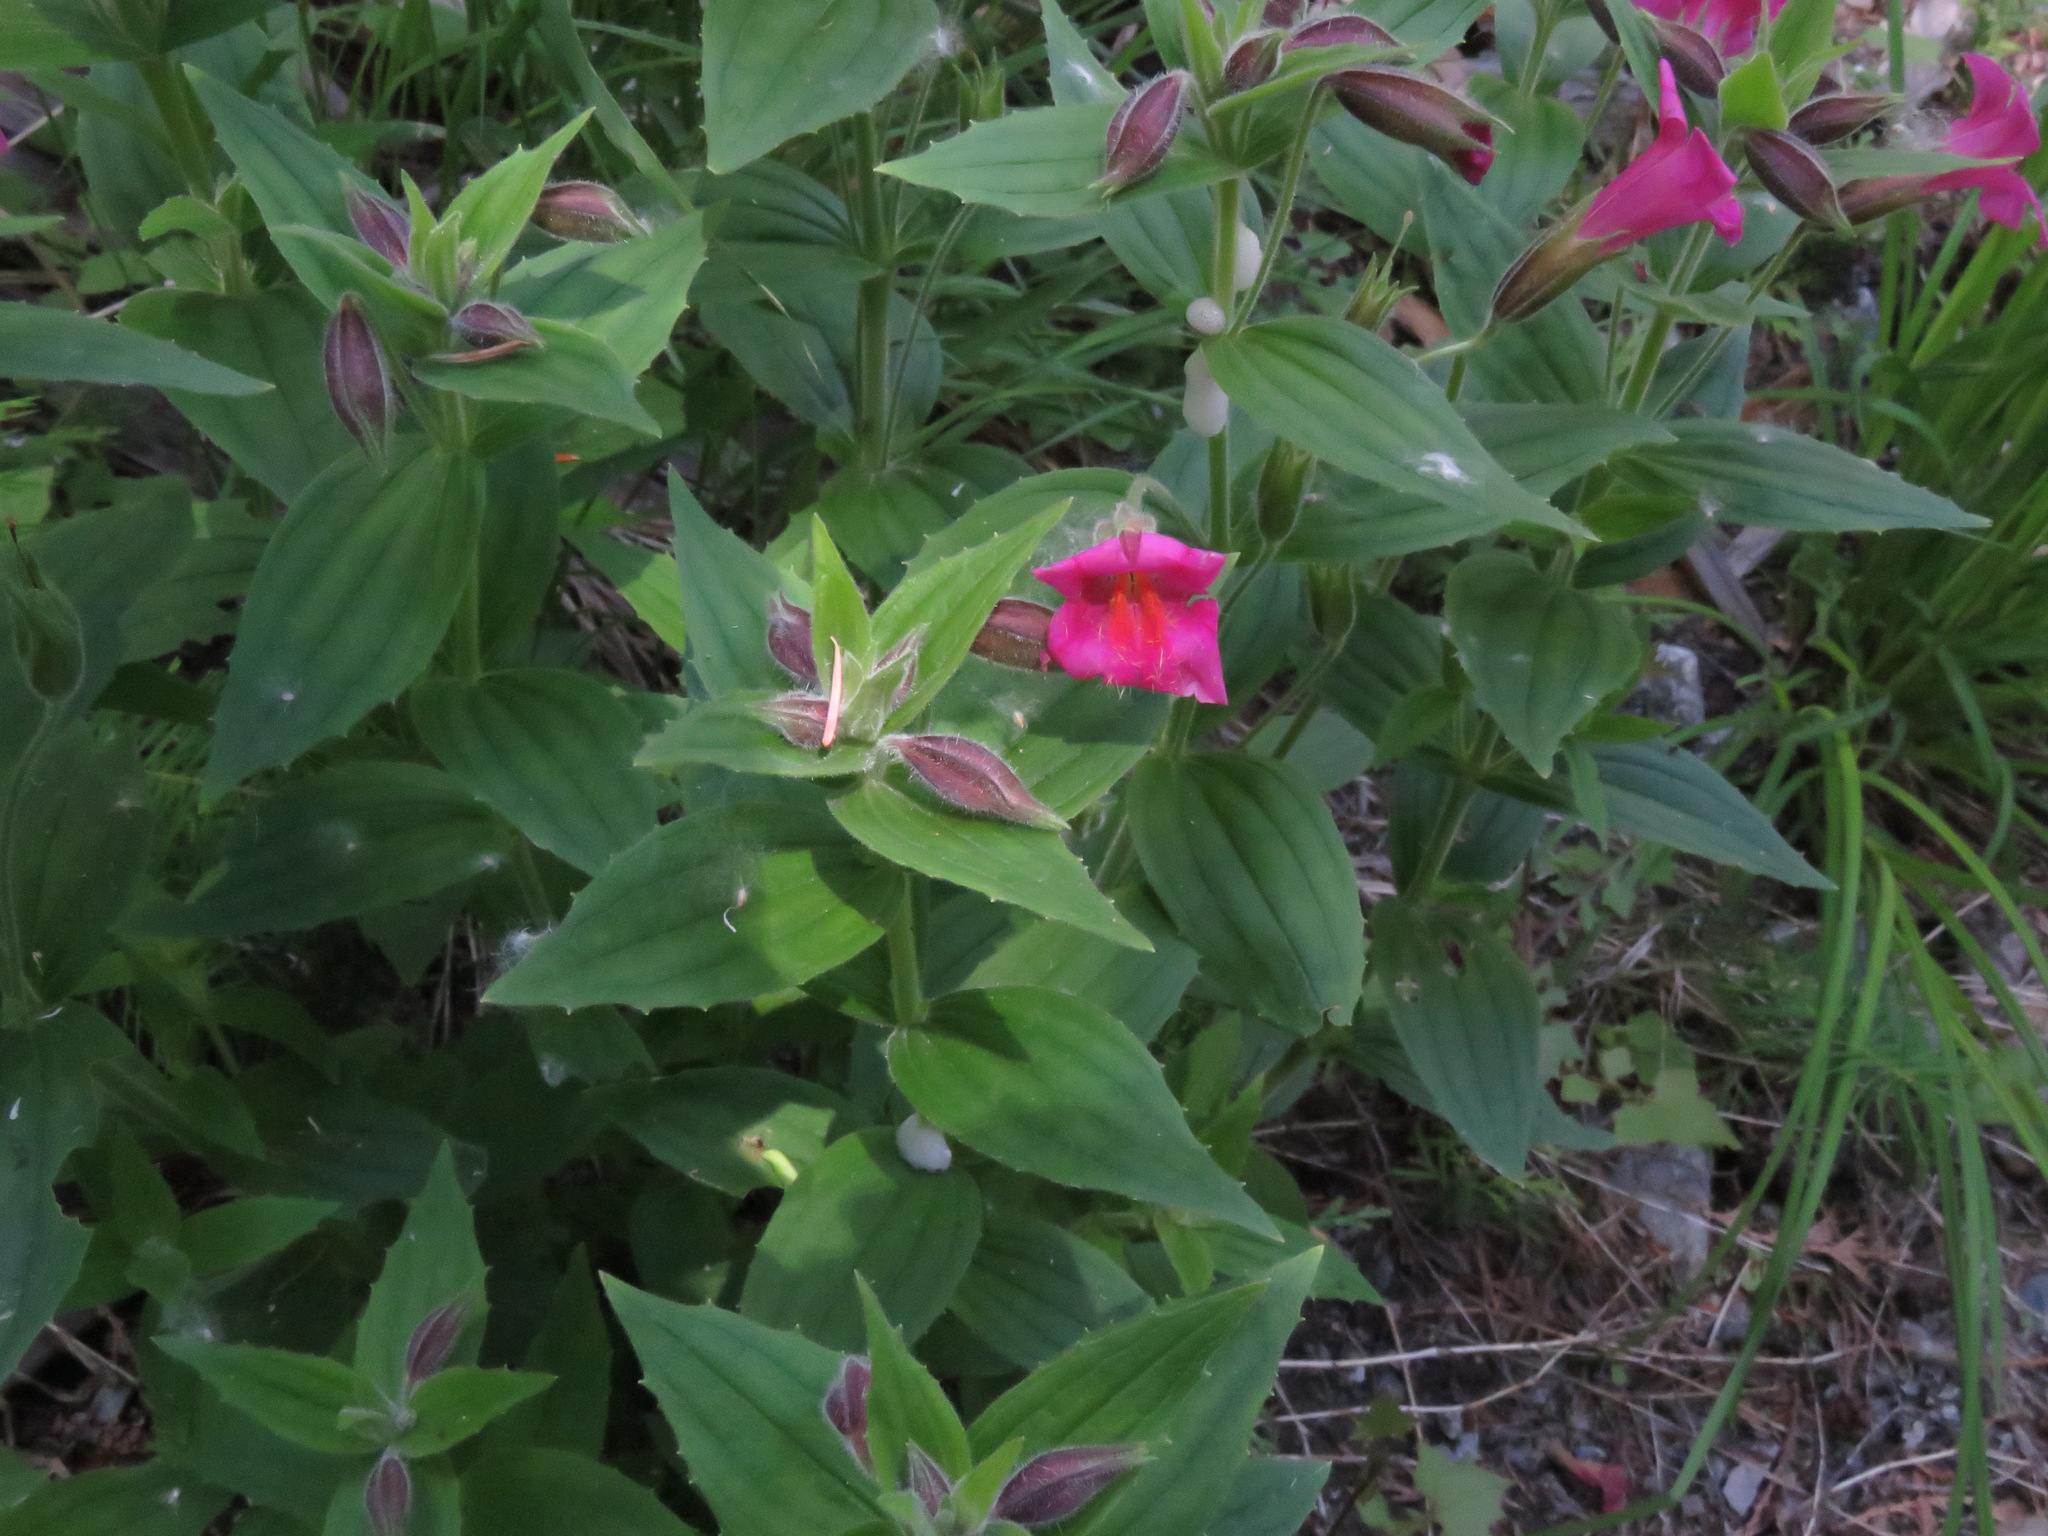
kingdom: Plantae
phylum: Tracheophyta
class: Magnoliopsida
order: Lamiales
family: Phrymaceae
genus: Erythranthe
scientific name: Erythranthe lewisii
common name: Lewis's monkey-flower
